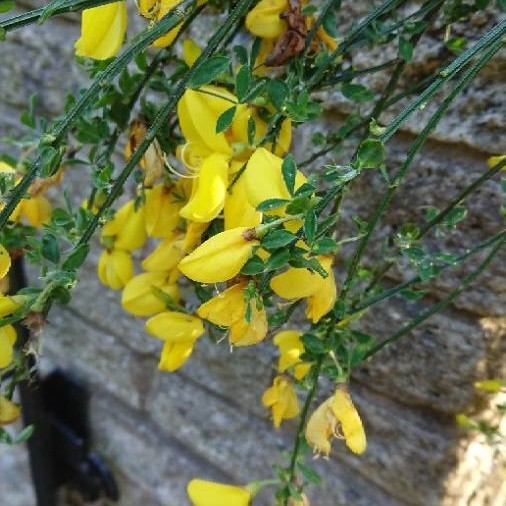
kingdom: Plantae
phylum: Tracheophyta
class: Magnoliopsida
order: Fabales
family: Fabaceae
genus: Cytisus
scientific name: Cytisus scoparius
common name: Scotch broom
